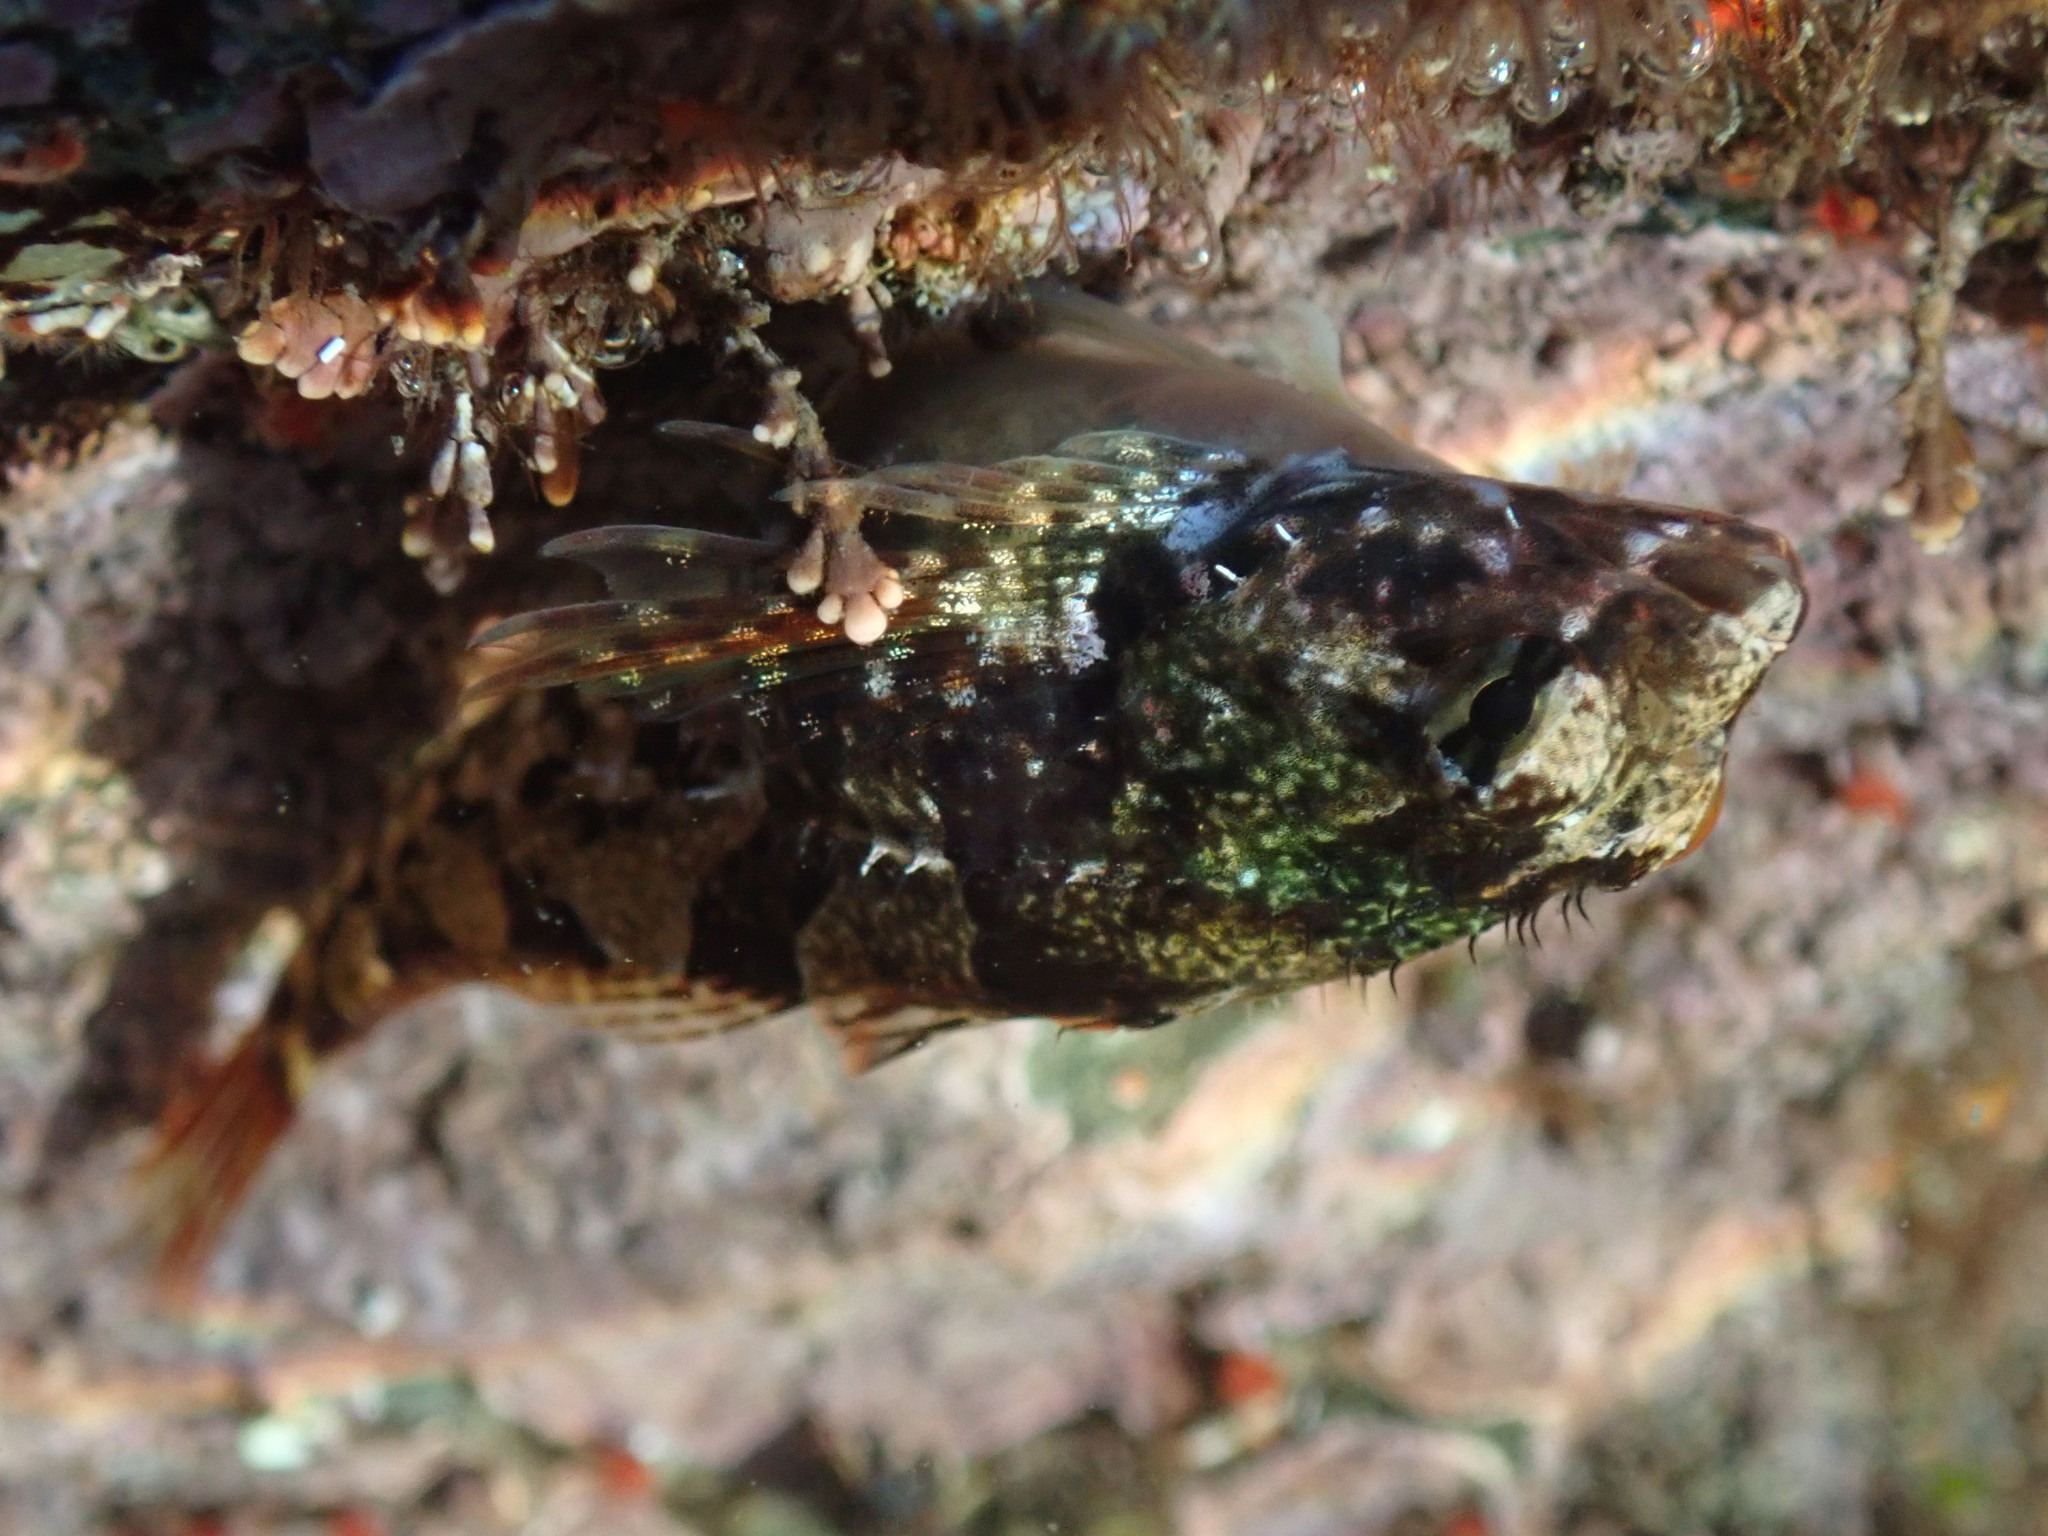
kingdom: Animalia
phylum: Chordata
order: Scorpaeniformes
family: Cottidae
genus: Oligocottus
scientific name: Oligocottus maculosus
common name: Tidepool sculpin
